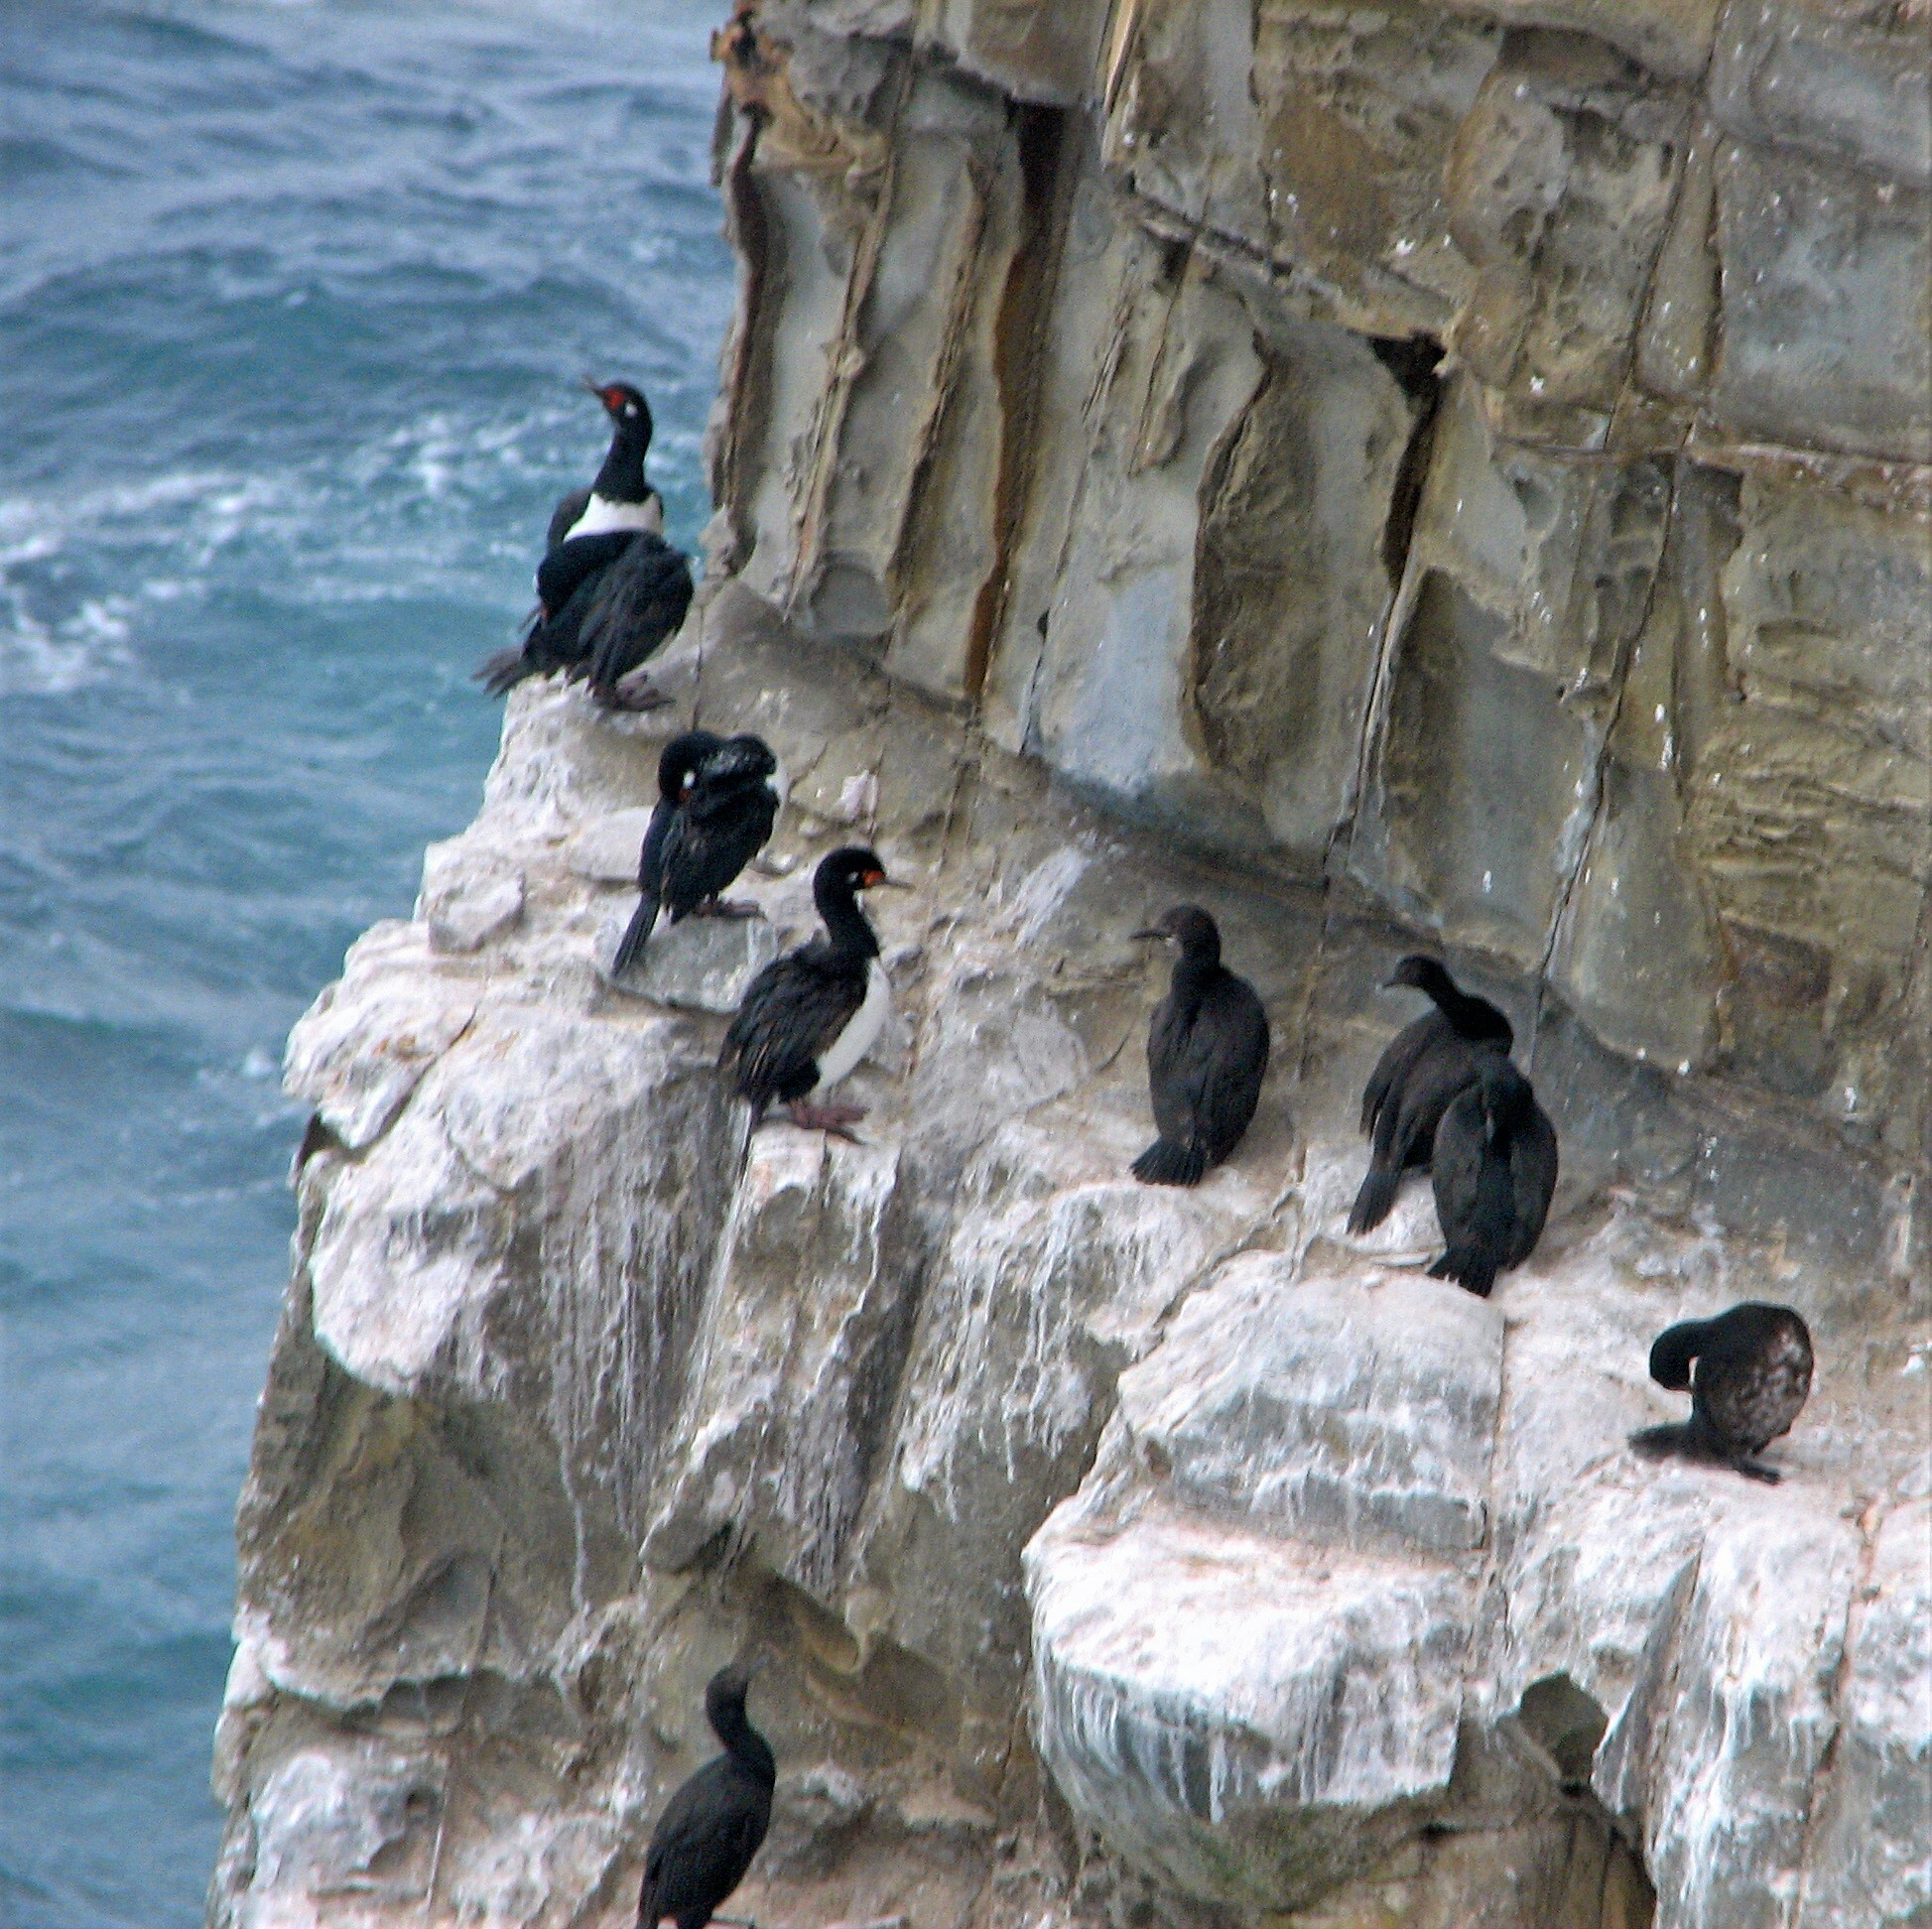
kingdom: Animalia
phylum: Chordata
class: Aves
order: Suliformes
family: Phalacrocoracidae
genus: Phalacrocorax
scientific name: Phalacrocorax magellanicus
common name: Rock shag
